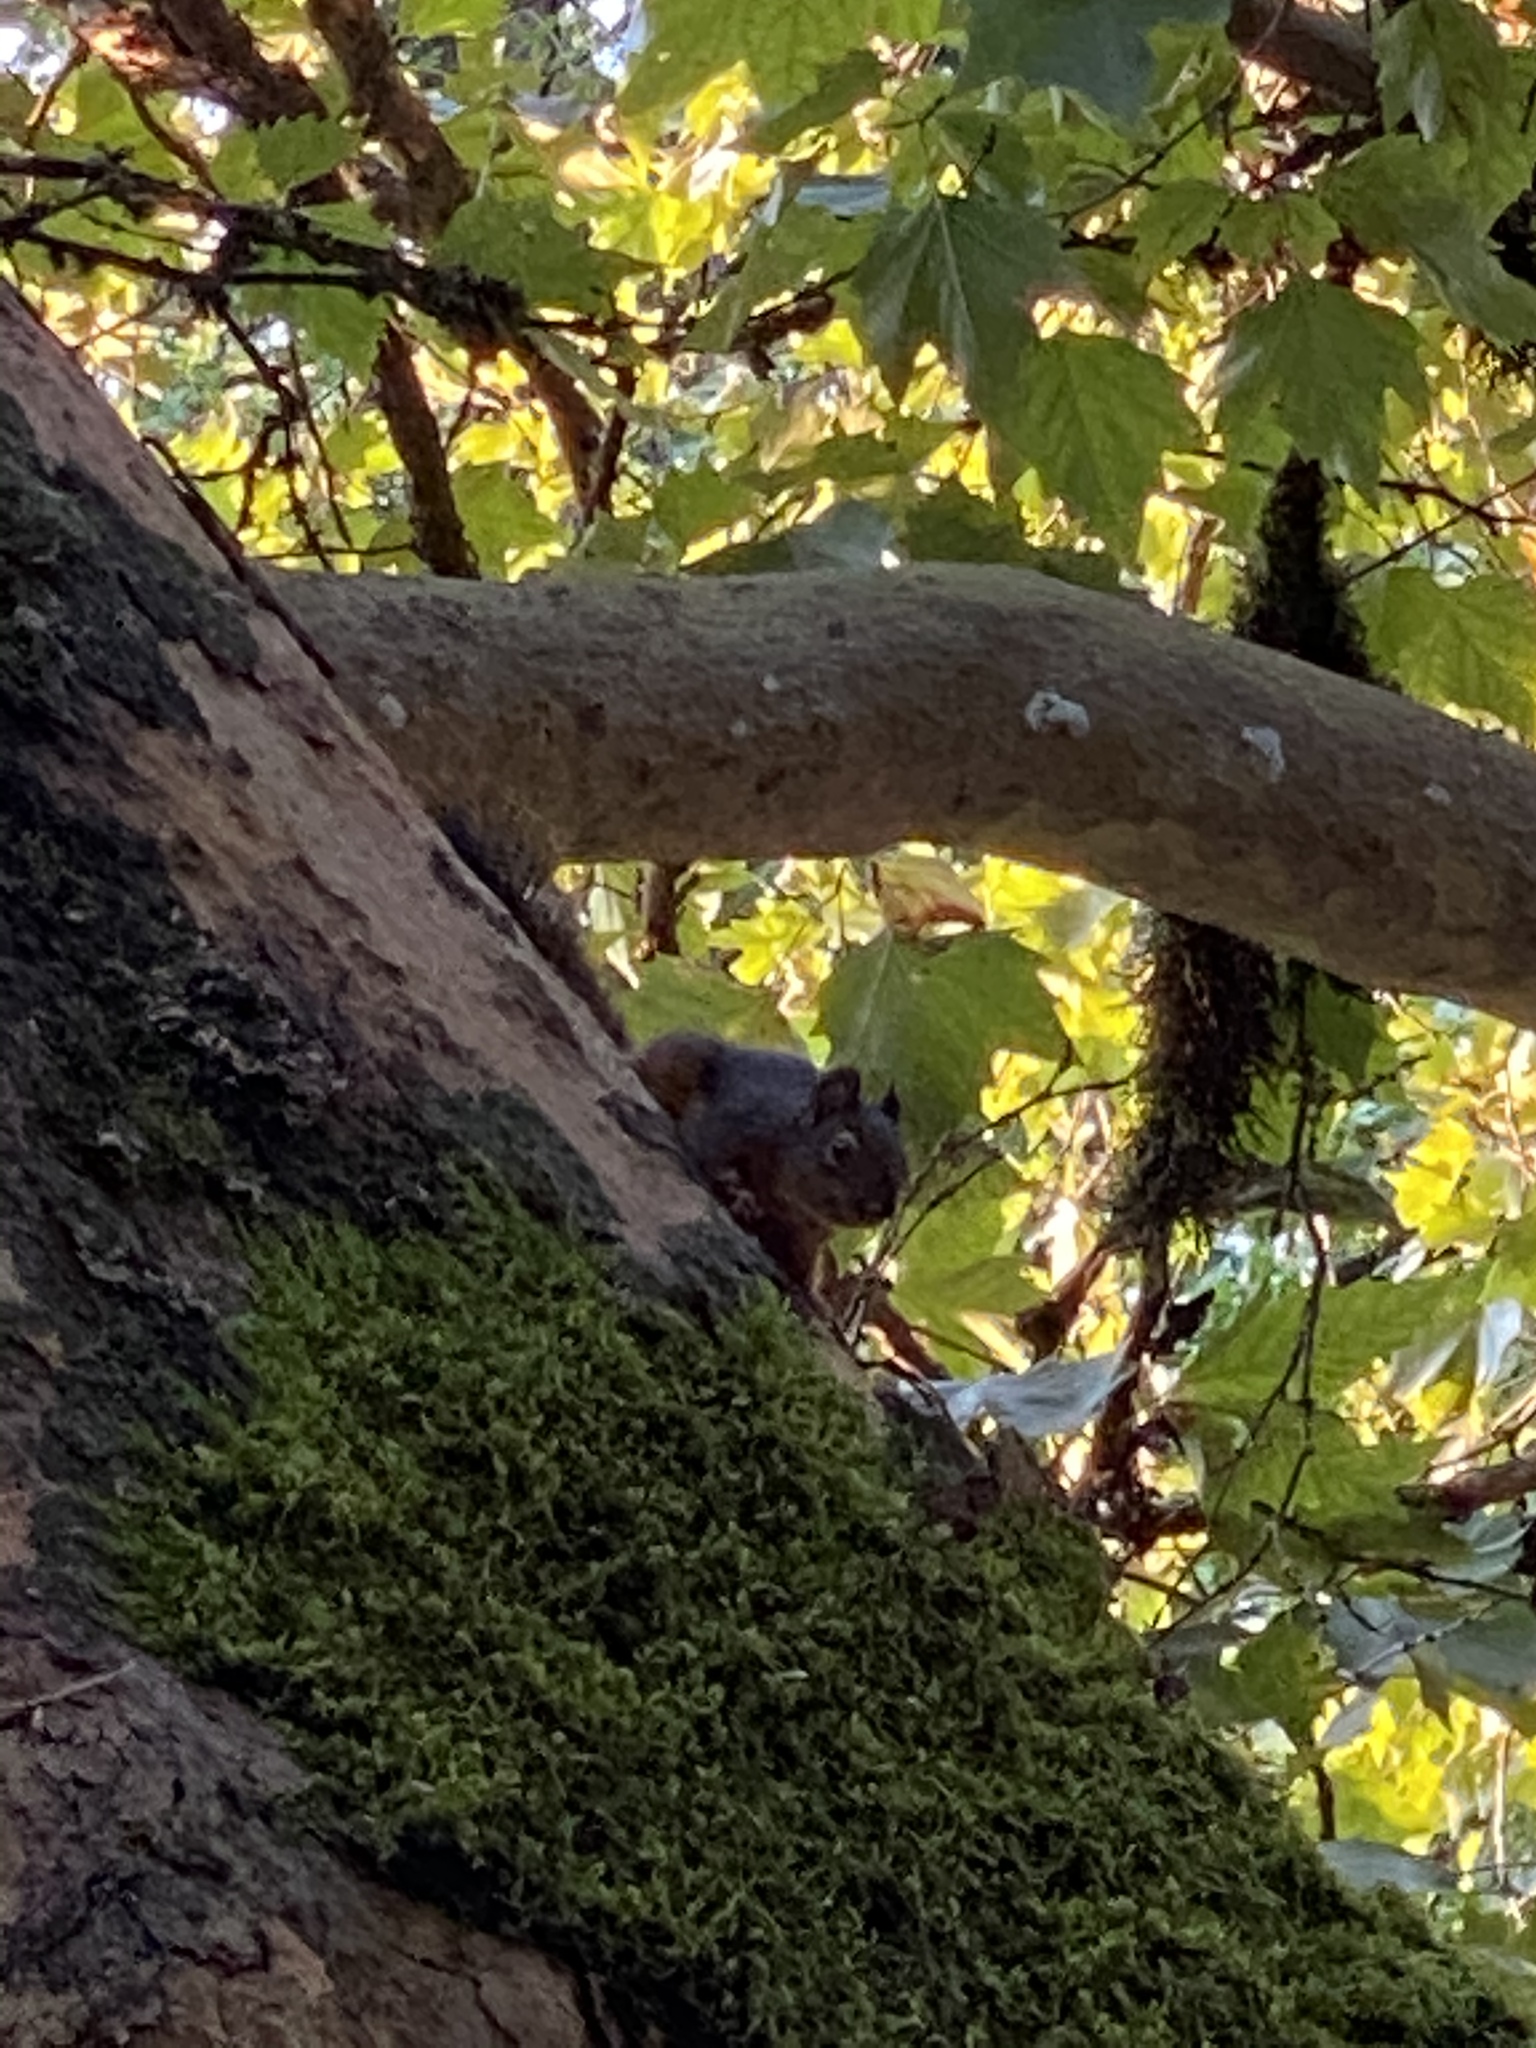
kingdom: Animalia
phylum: Chordata
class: Mammalia
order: Rodentia
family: Sciuridae
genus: Tamiasciurus
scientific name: Tamiasciurus douglasii
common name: Douglas's squirrel
